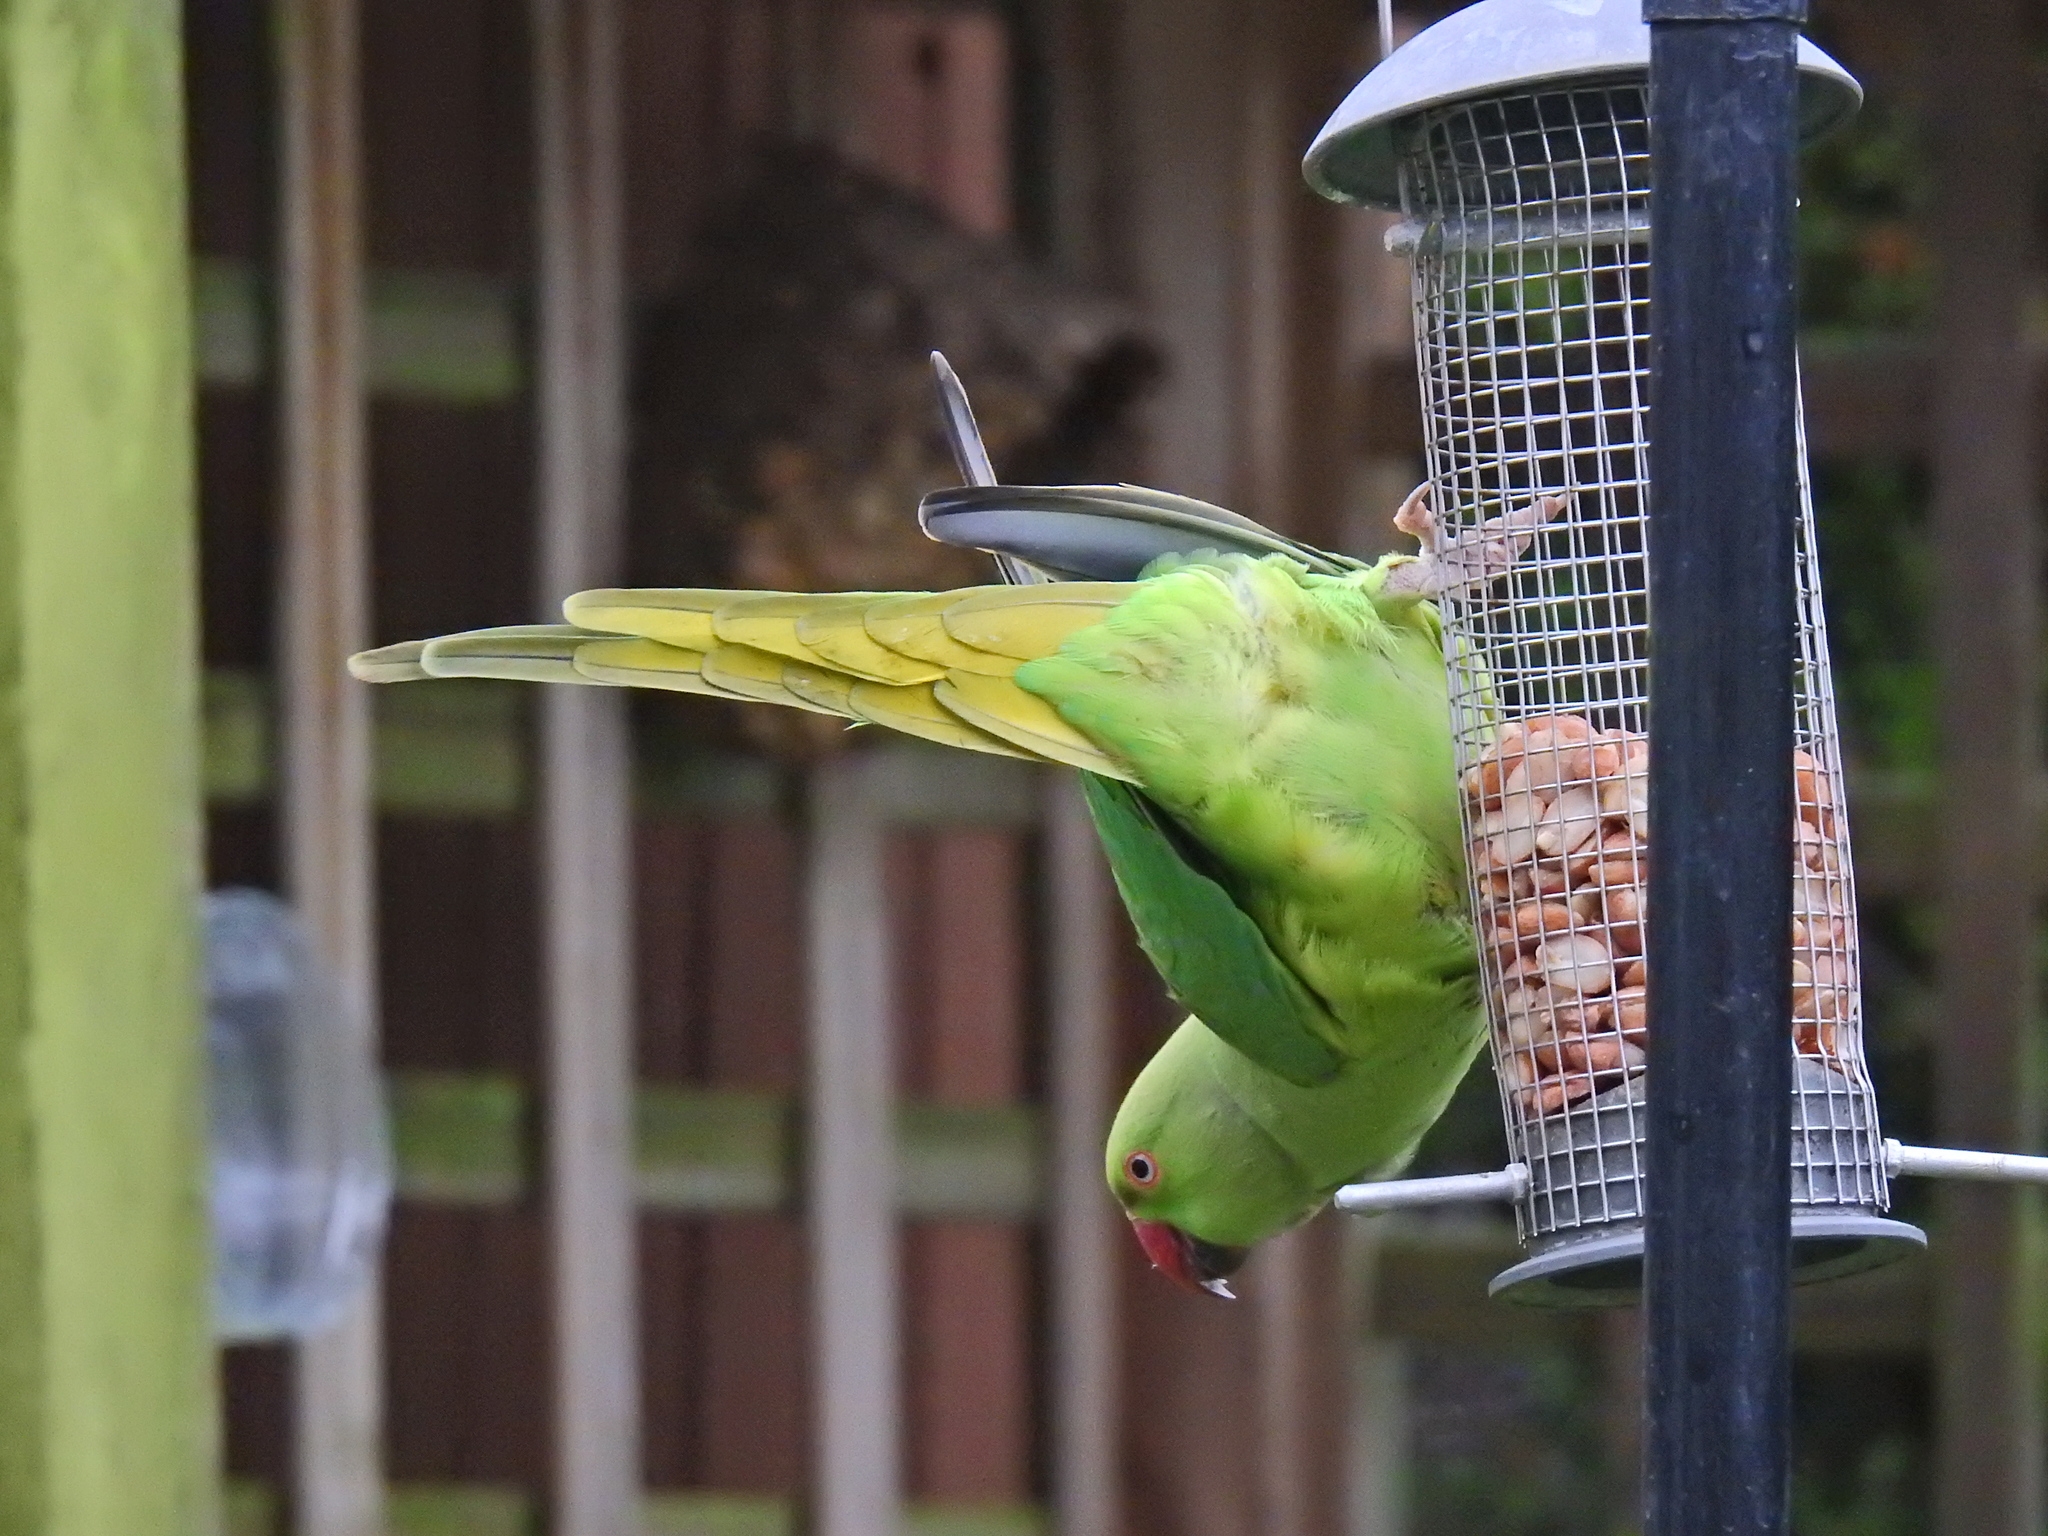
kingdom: Animalia
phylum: Chordata
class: Aves
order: Psittaciformes
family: Psittacidae
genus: Psittacula
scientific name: Psittacula krameri
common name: Rose-ringed parakeet
